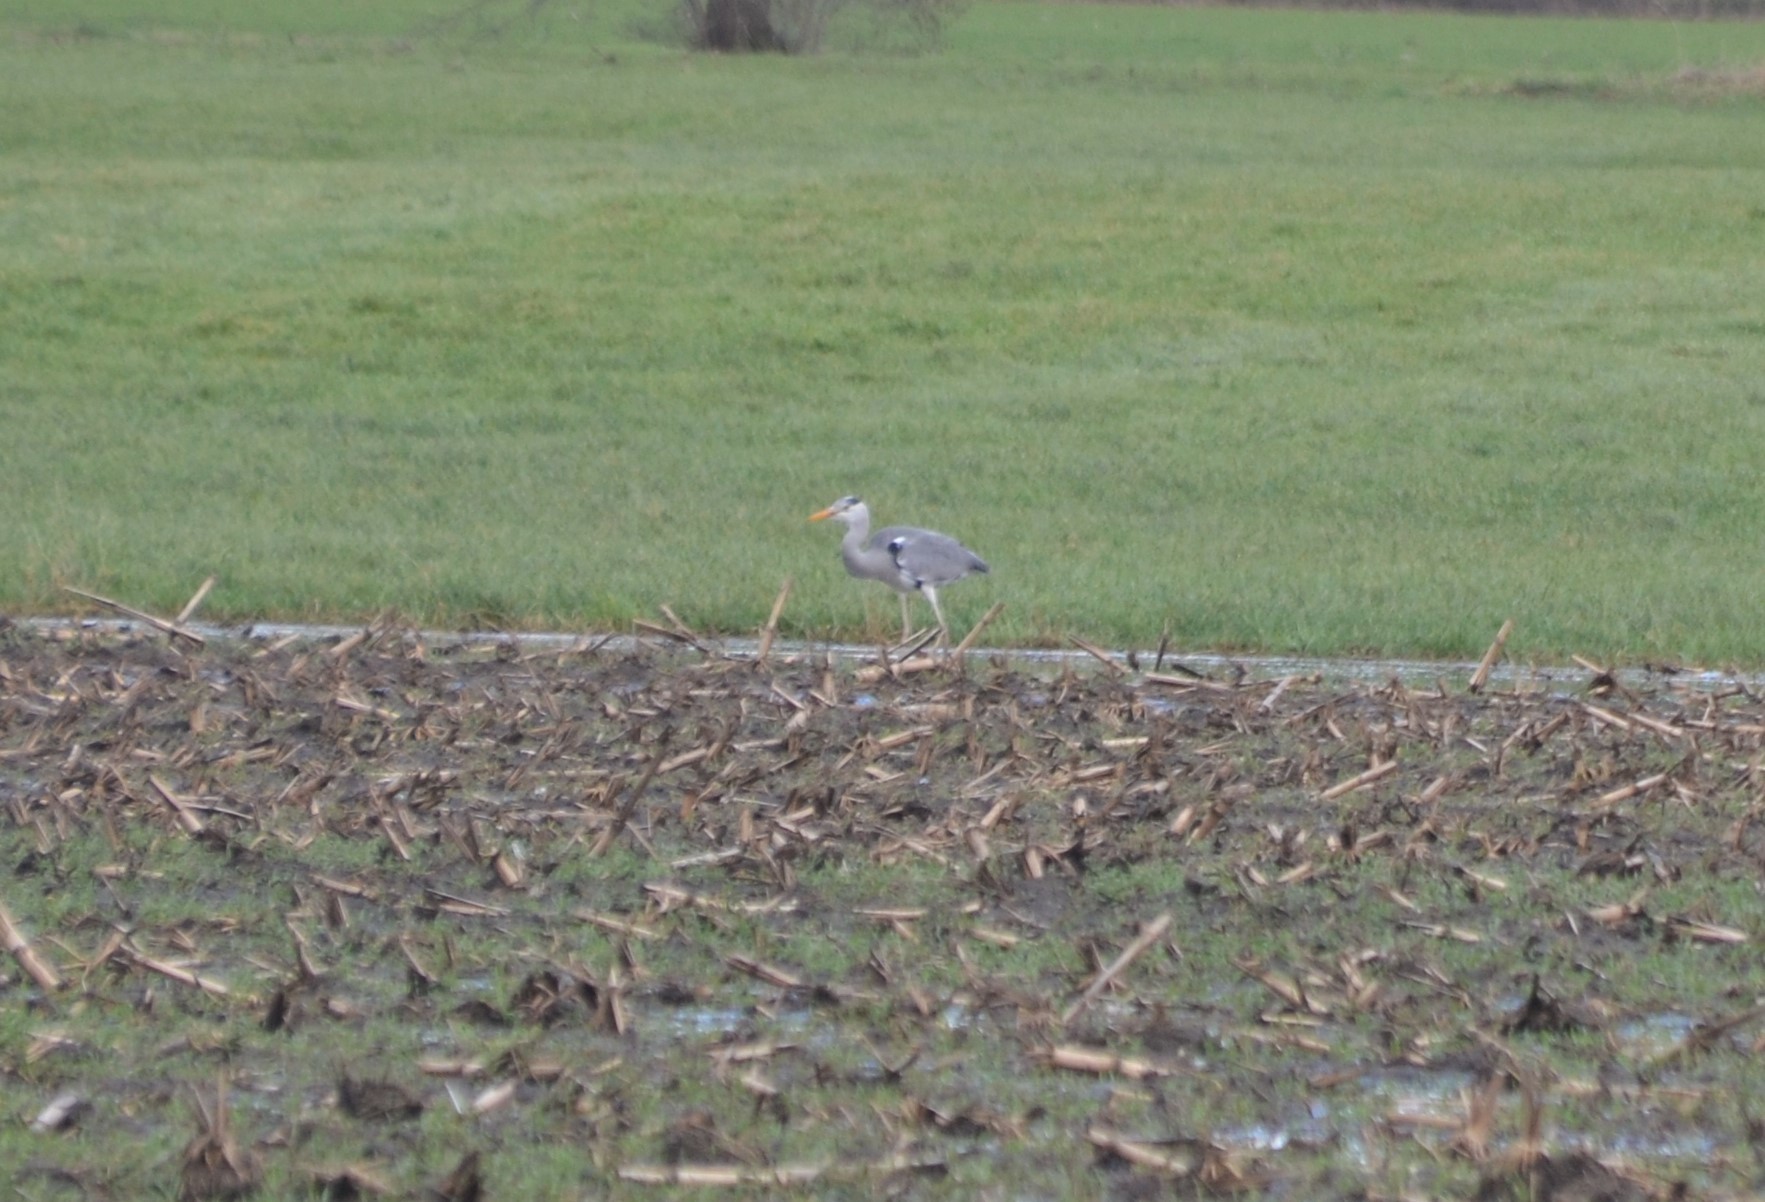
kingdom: Animalia
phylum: Chordata
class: Aves
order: Pelecaniformes
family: Ardeidae
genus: Ardea
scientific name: Ardea cinerea
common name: Grey heron
